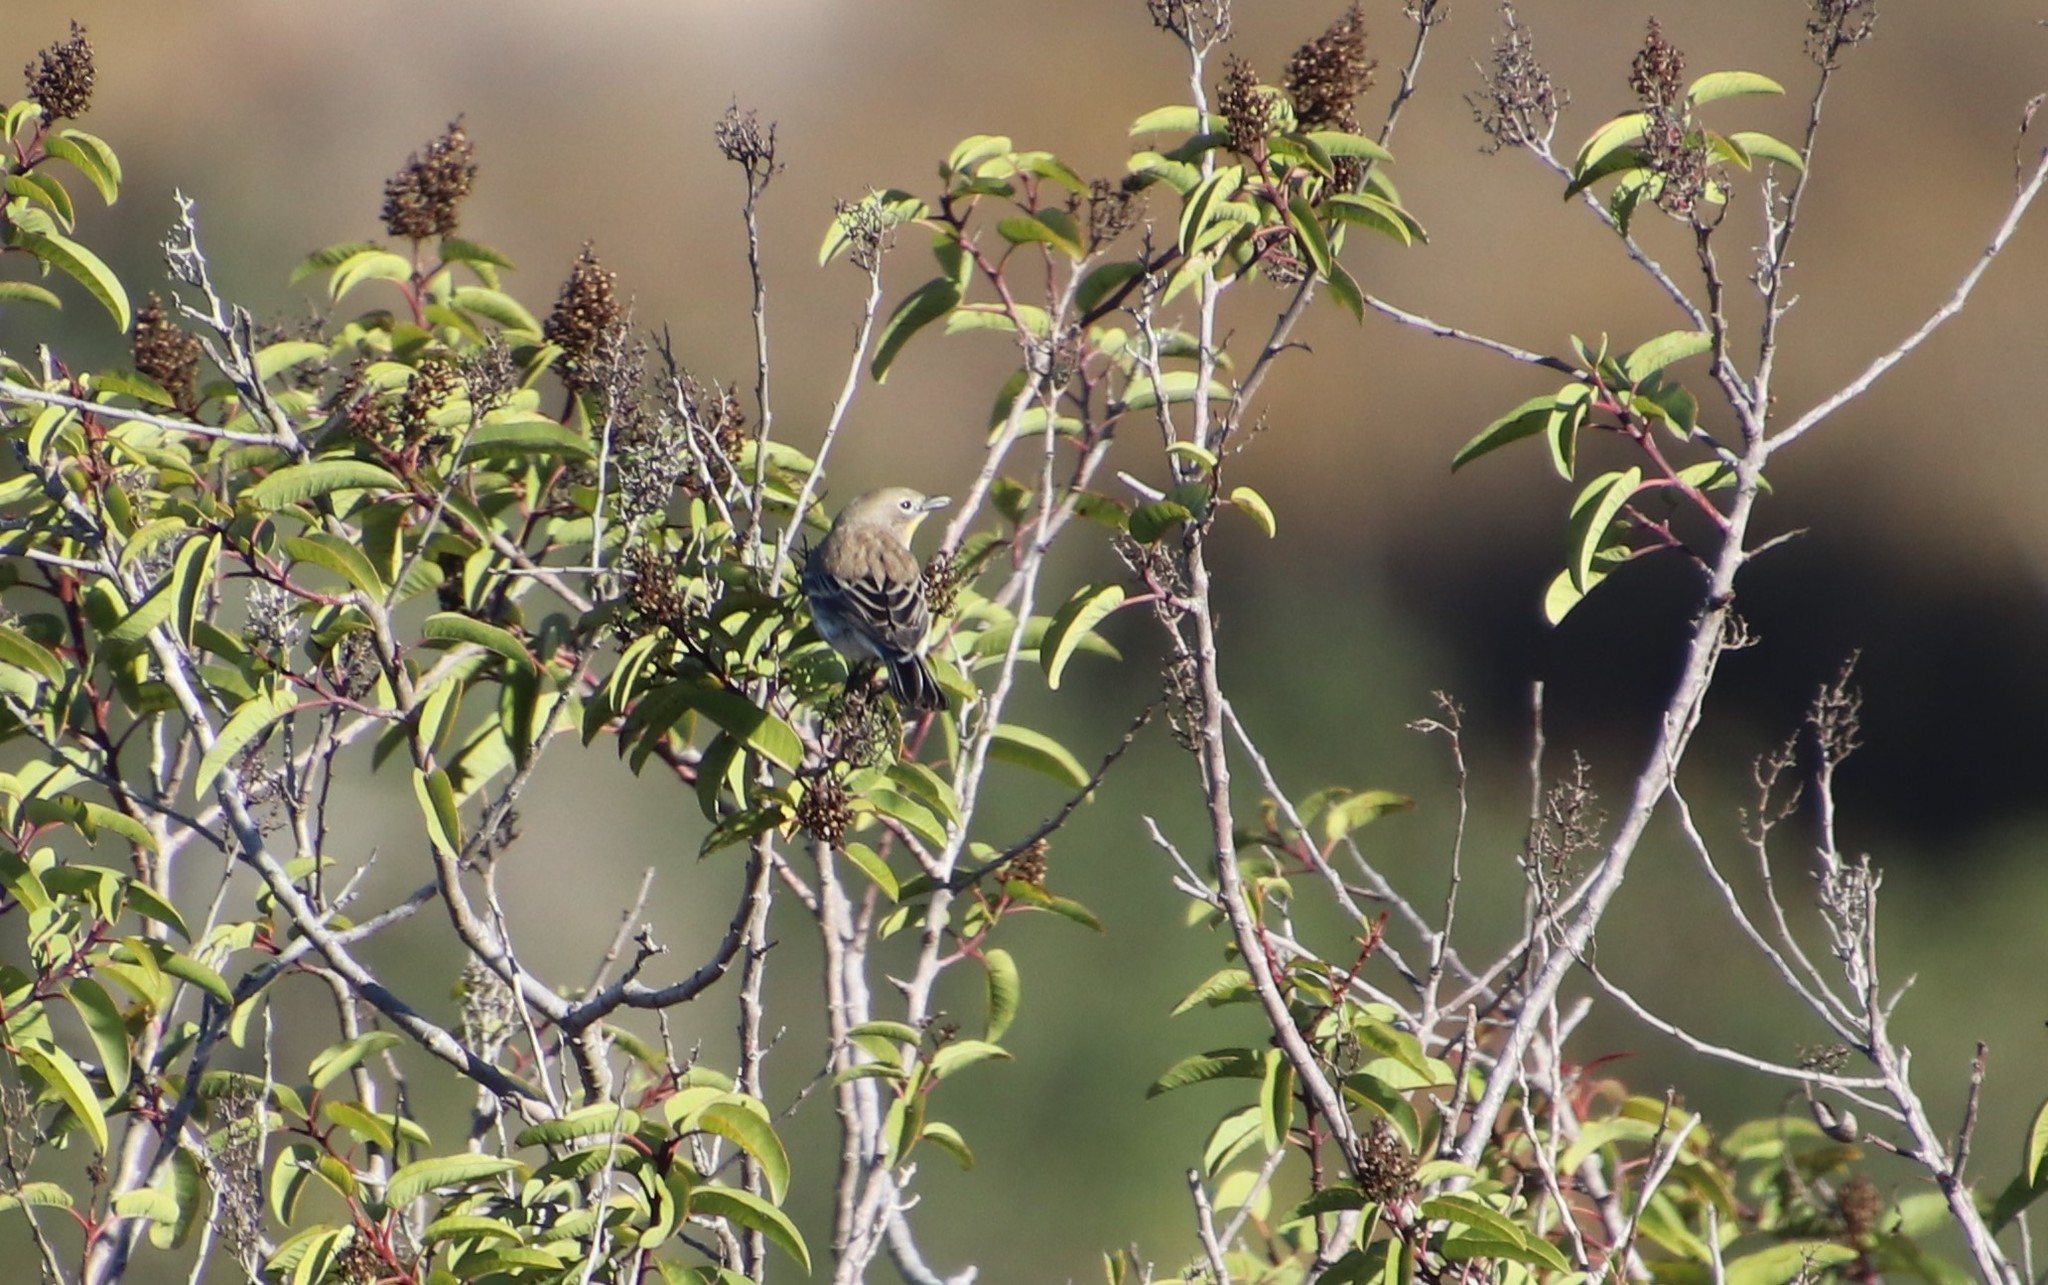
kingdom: Animalia
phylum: Chordata
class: Aves
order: Passeriformes
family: Parulidae
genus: Setophaga
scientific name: Setophaga coronata
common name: Myrtle warbler
